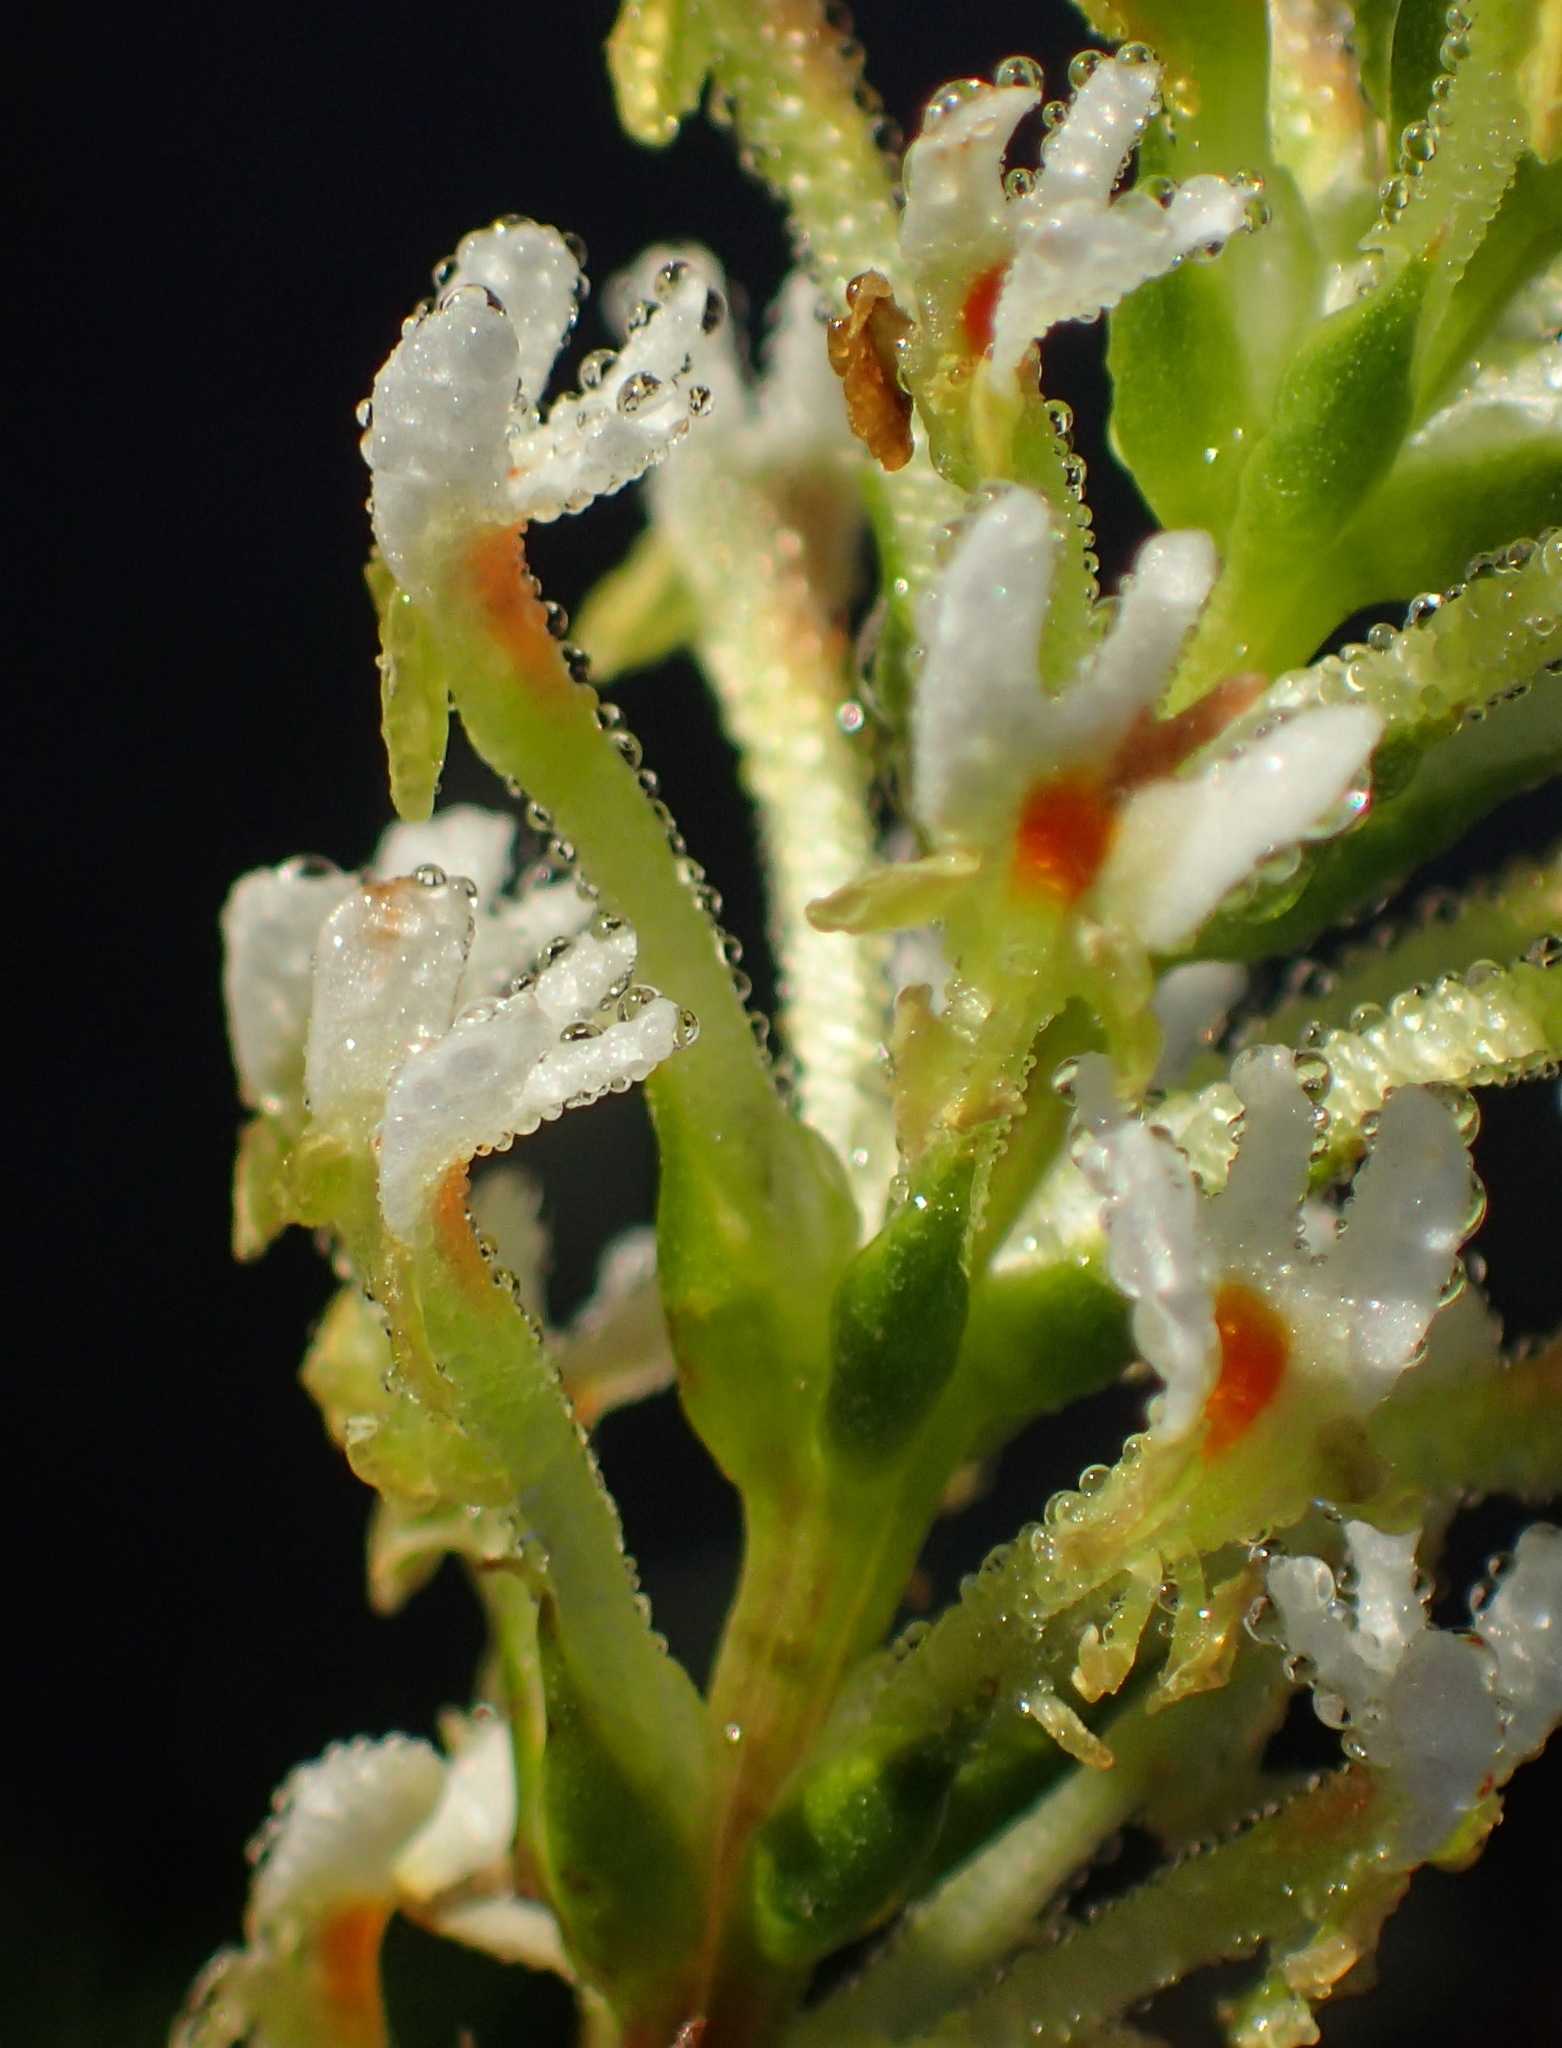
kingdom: Plantae
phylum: Tracheophyta
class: Magnoliopsida
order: Lamiales
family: Scrophulariaceae
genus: Hebenstretia
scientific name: Hebenstretia integrifolia
